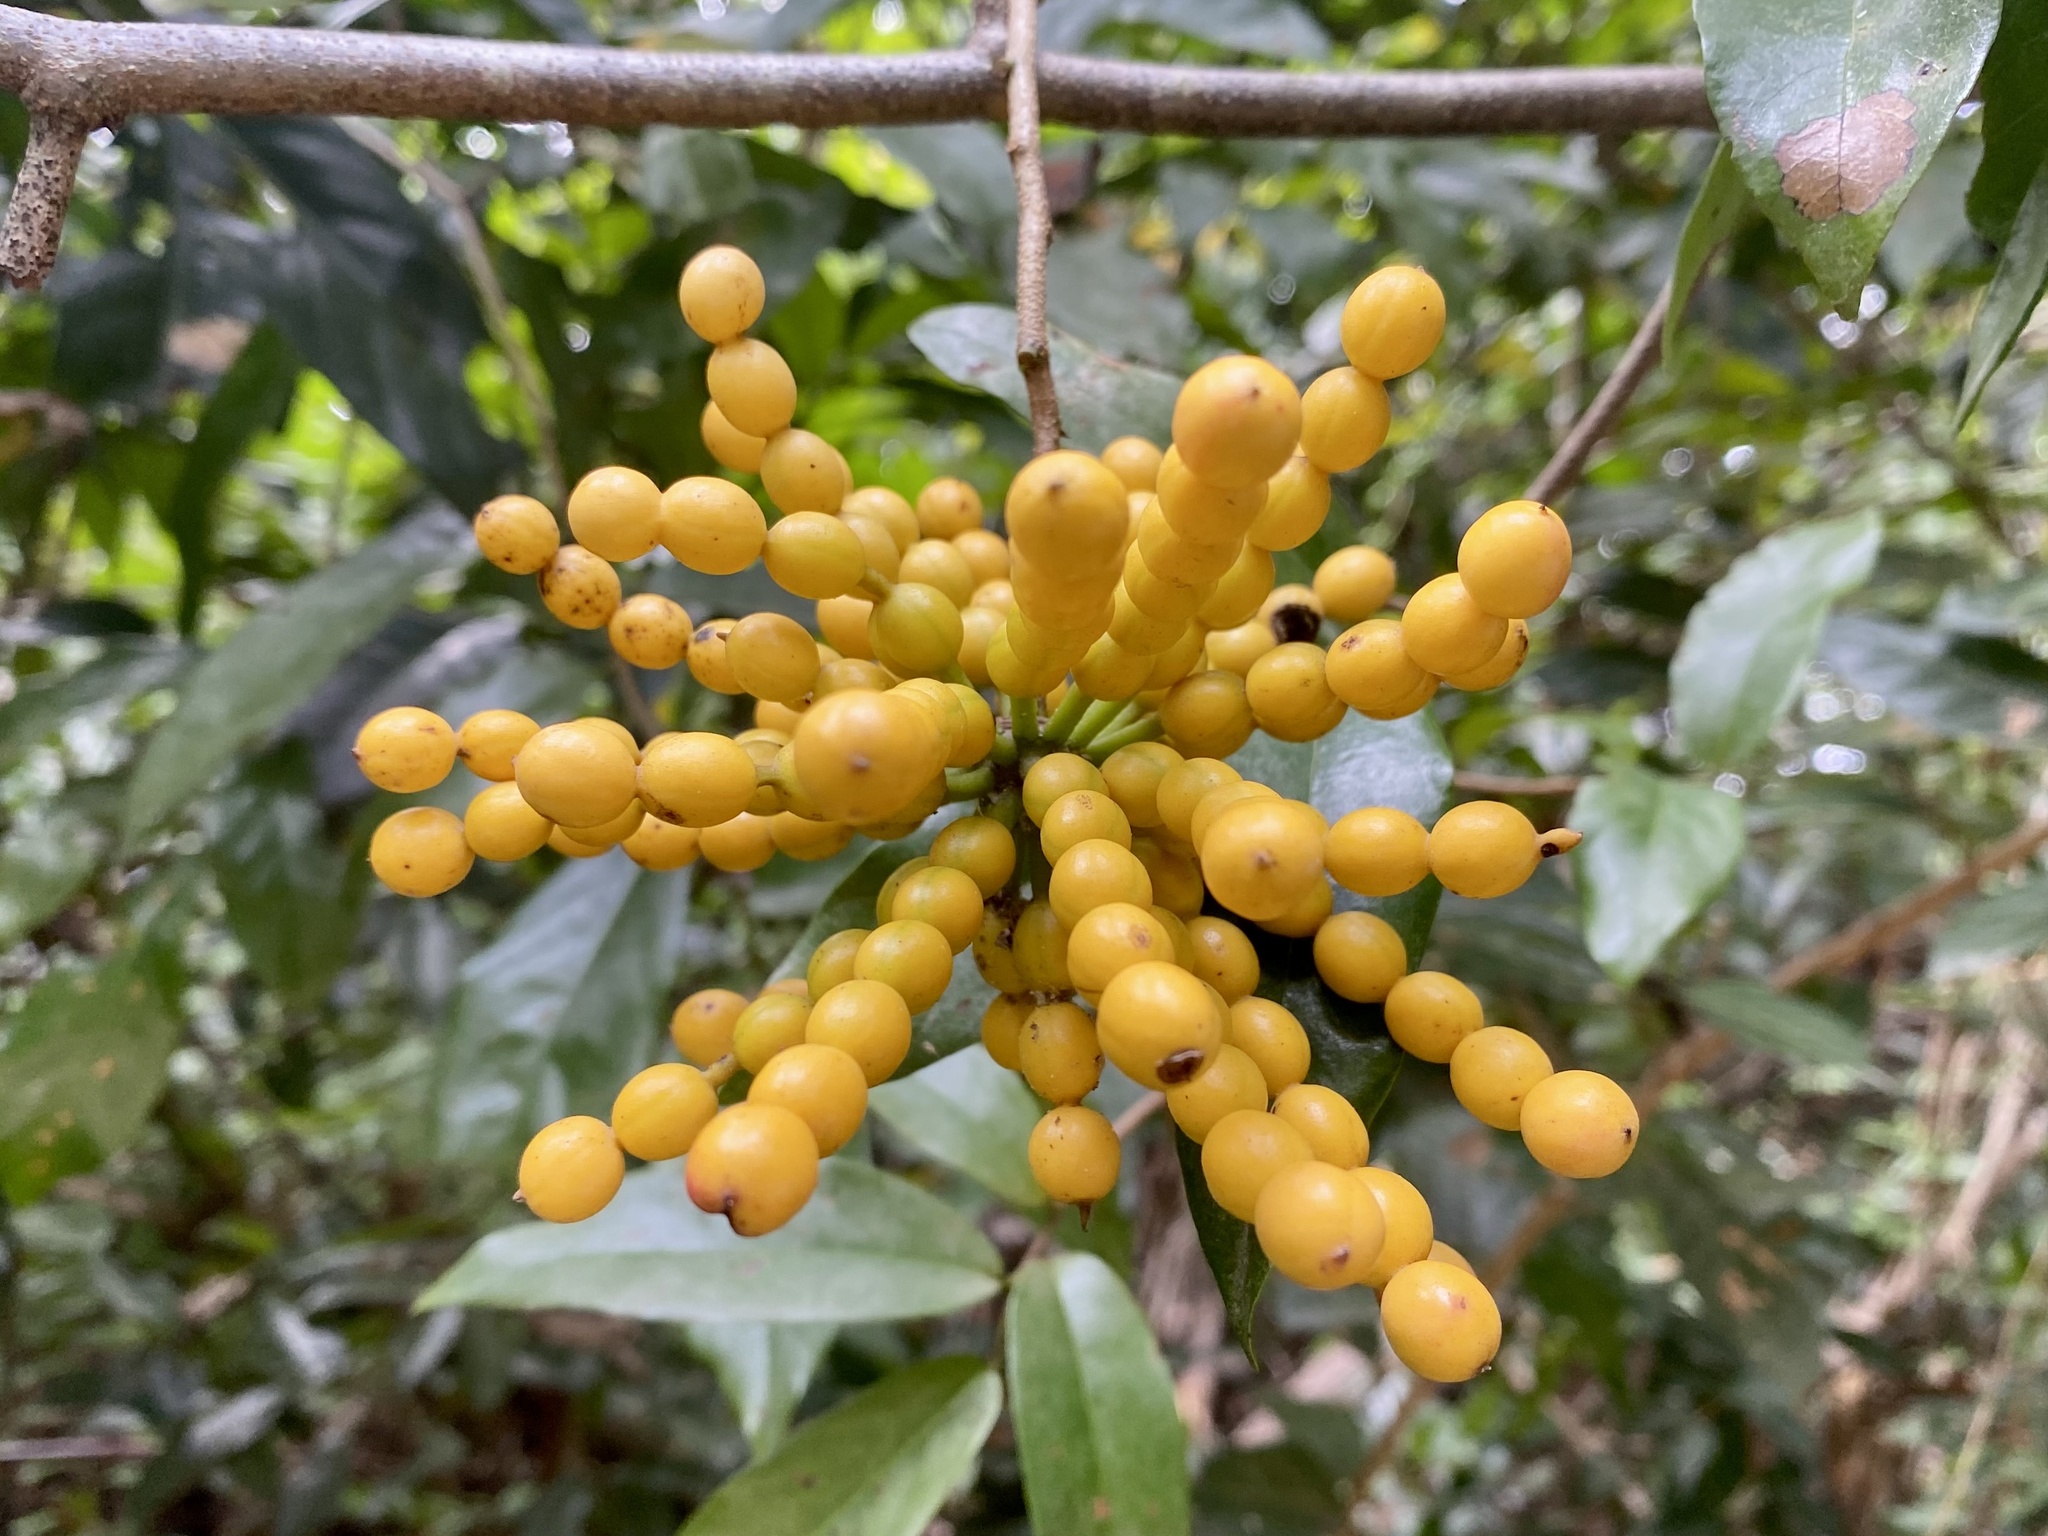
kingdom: Plantae
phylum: Tracheophyta
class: Magnoliopsida
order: Magnoliales
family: Annonaceae
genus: Desmos
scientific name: Desmos chinensis
